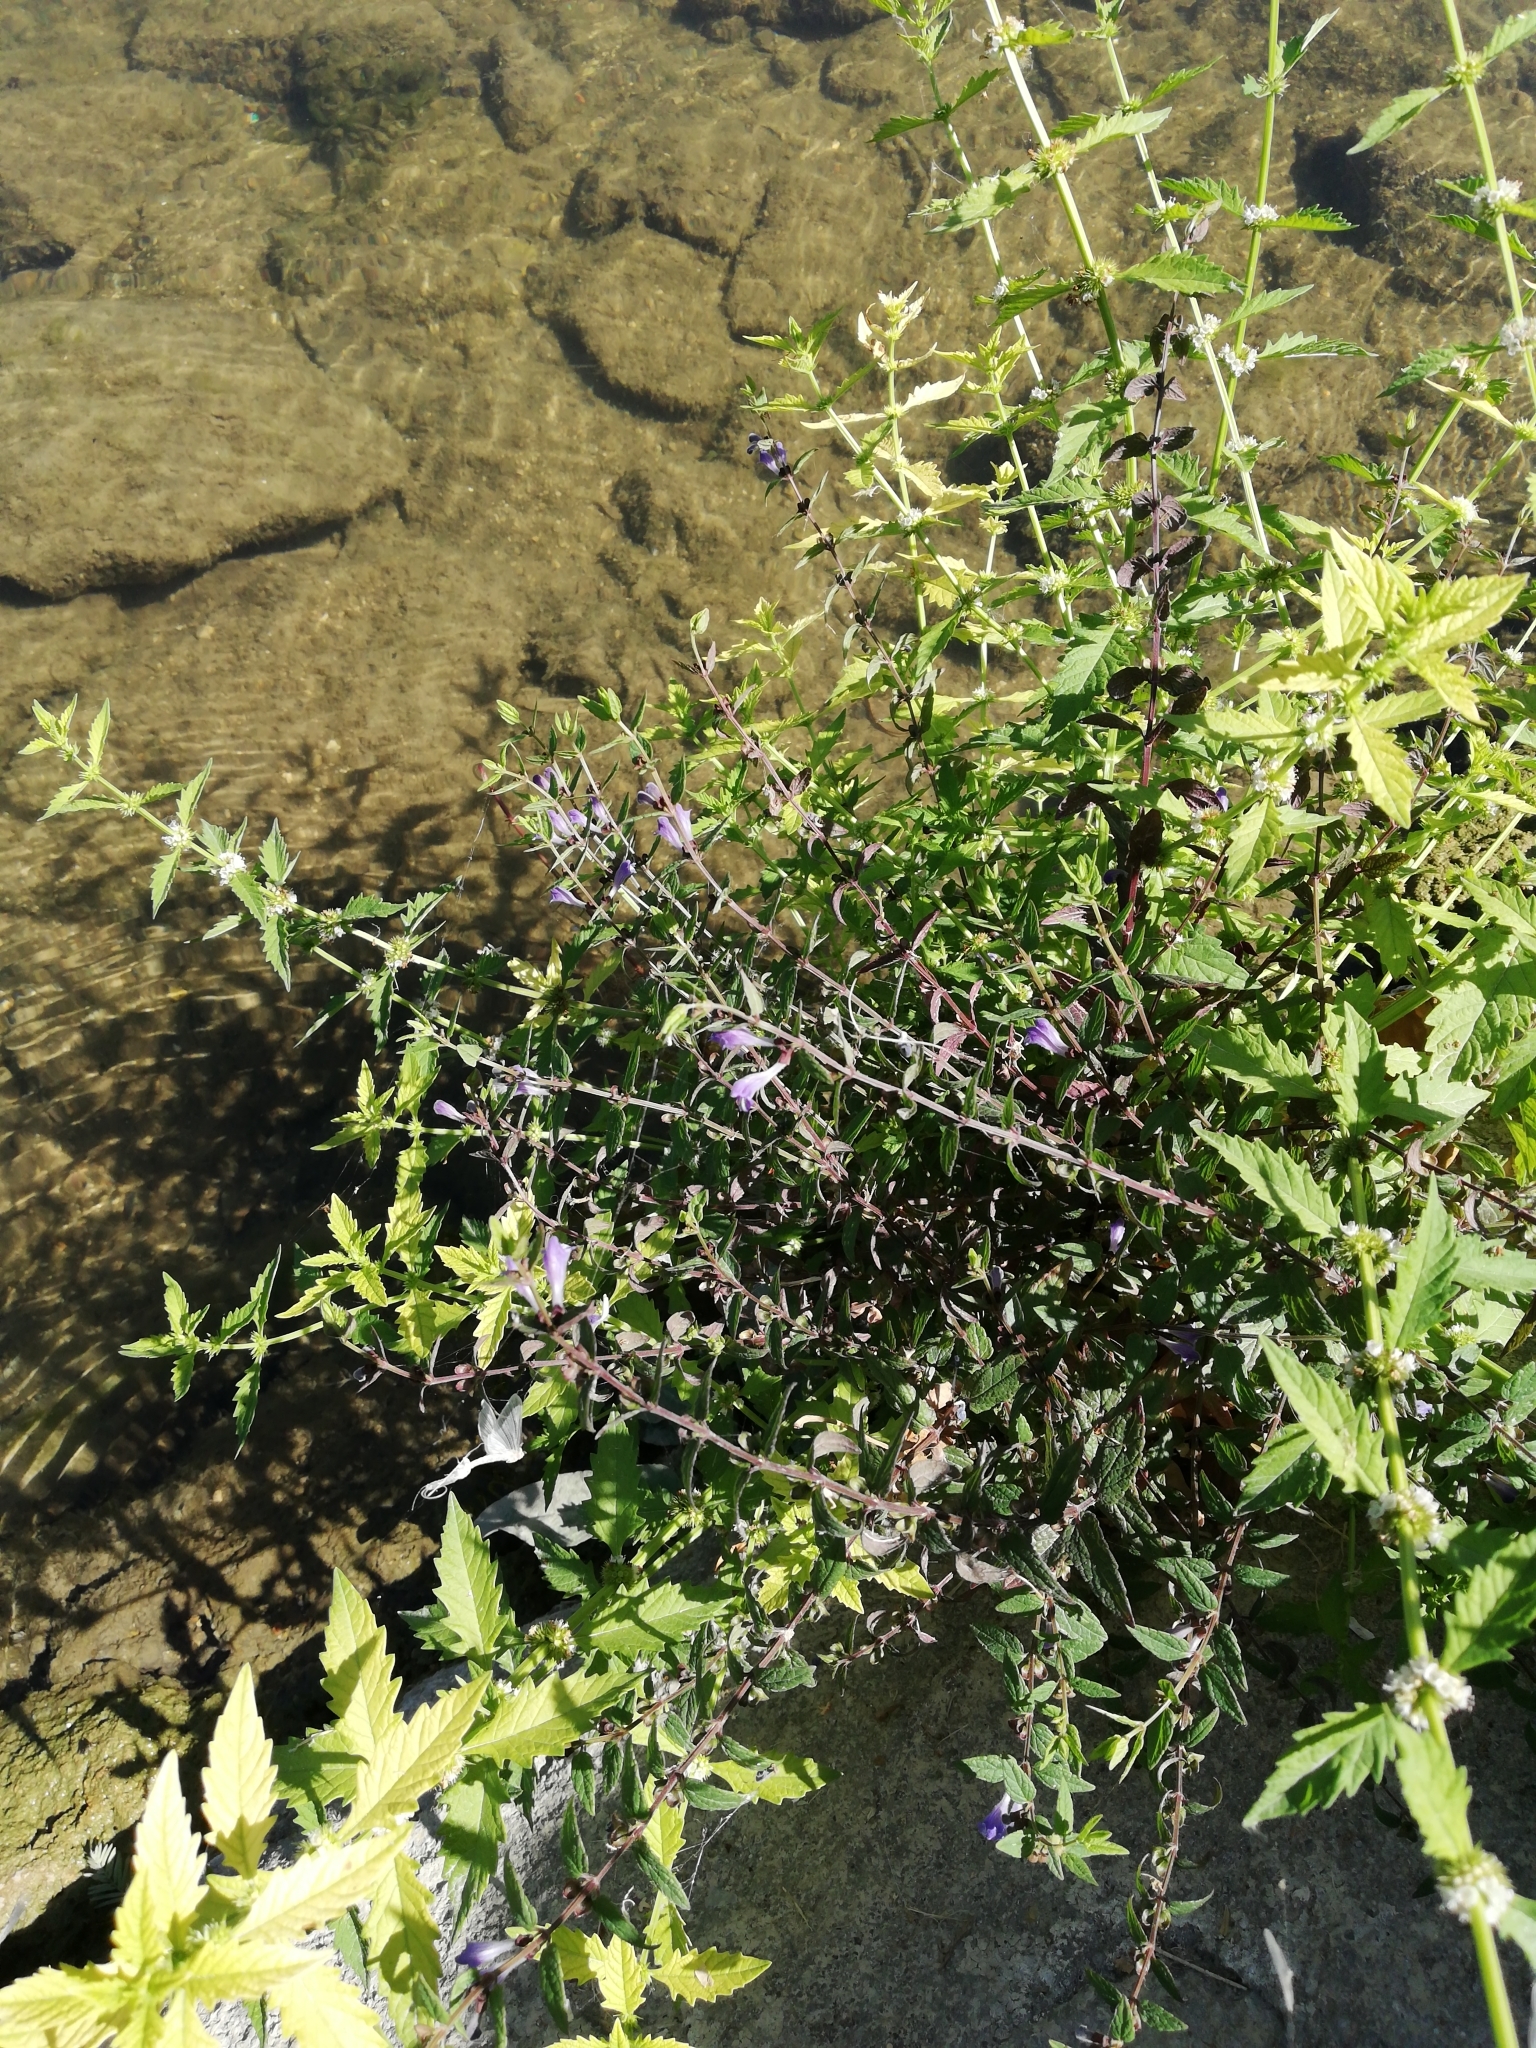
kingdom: Plantae
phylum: Tracheophyta
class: Magnoliopsida
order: Lamiales
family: Lamiaceae
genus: Scutellaria
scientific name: Scutellaria galericulata
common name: Skullcap
